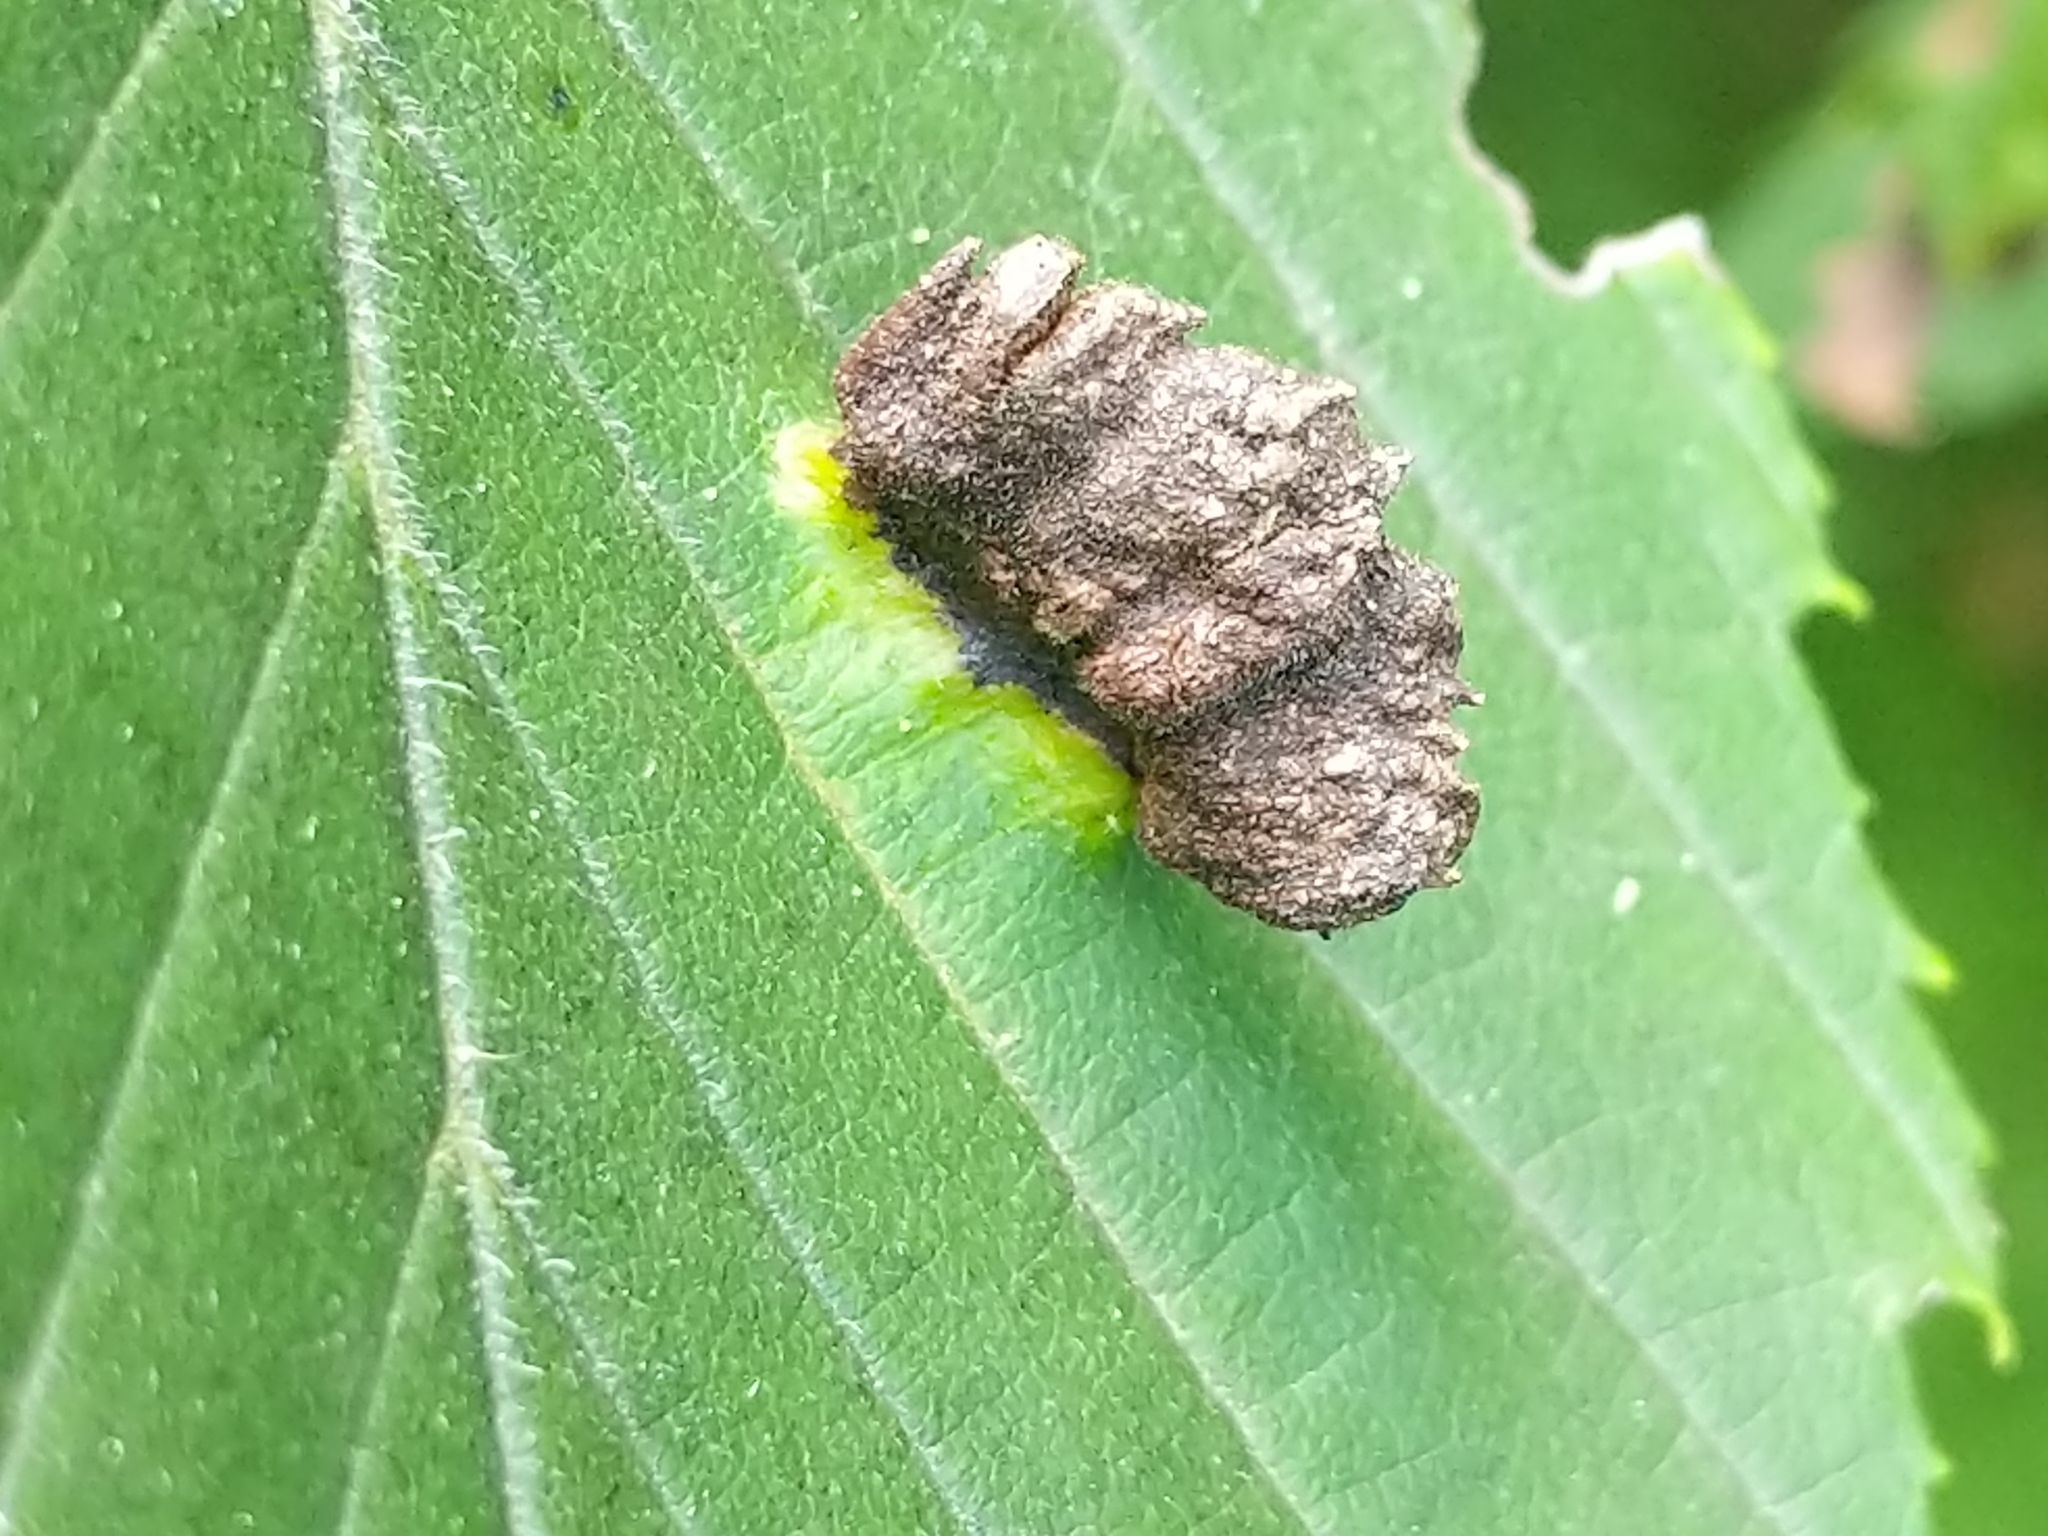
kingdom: Animalia
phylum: Arthropoda
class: Insecta
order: Hemiptera
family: Aphididae
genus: Colopha
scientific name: Colopha ulmicola
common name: Elm cockscombgall aphid
